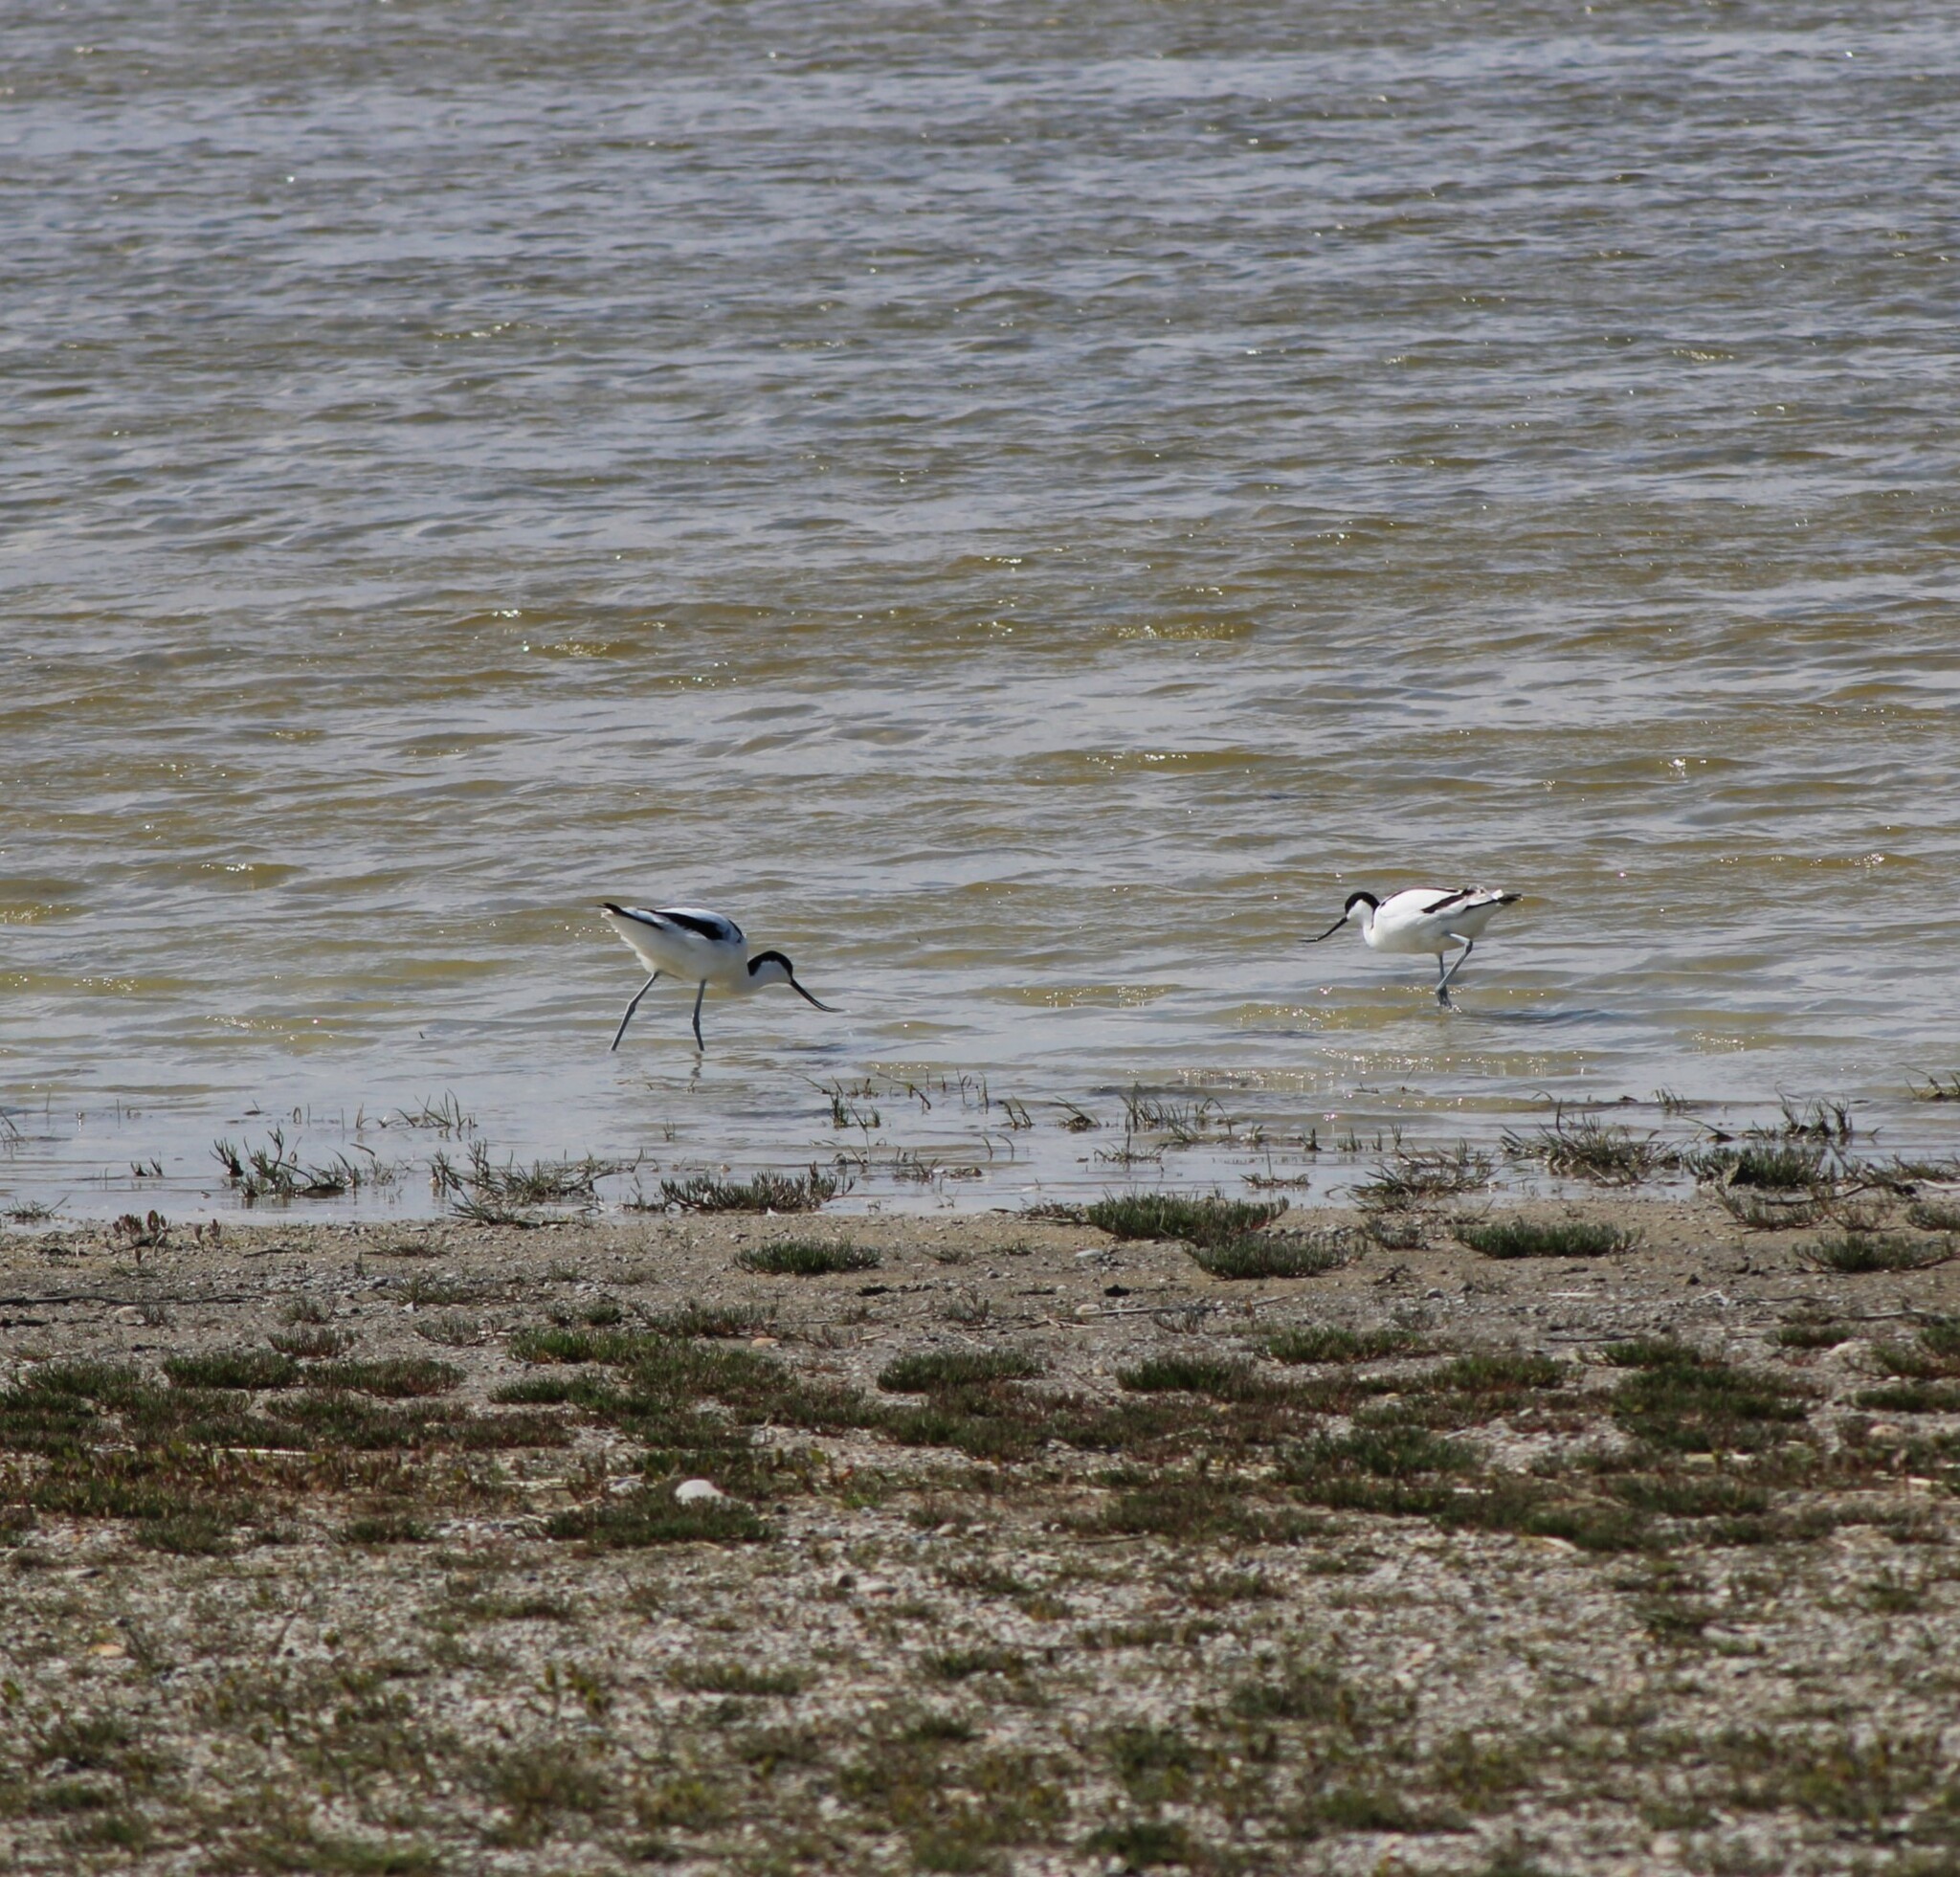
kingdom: Animalia
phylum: Chordata
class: Aves
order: Charadriiformes
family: Recurvirostridae
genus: Recurvirostra
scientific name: Recurvirostra avosetta
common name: Pied avocet
